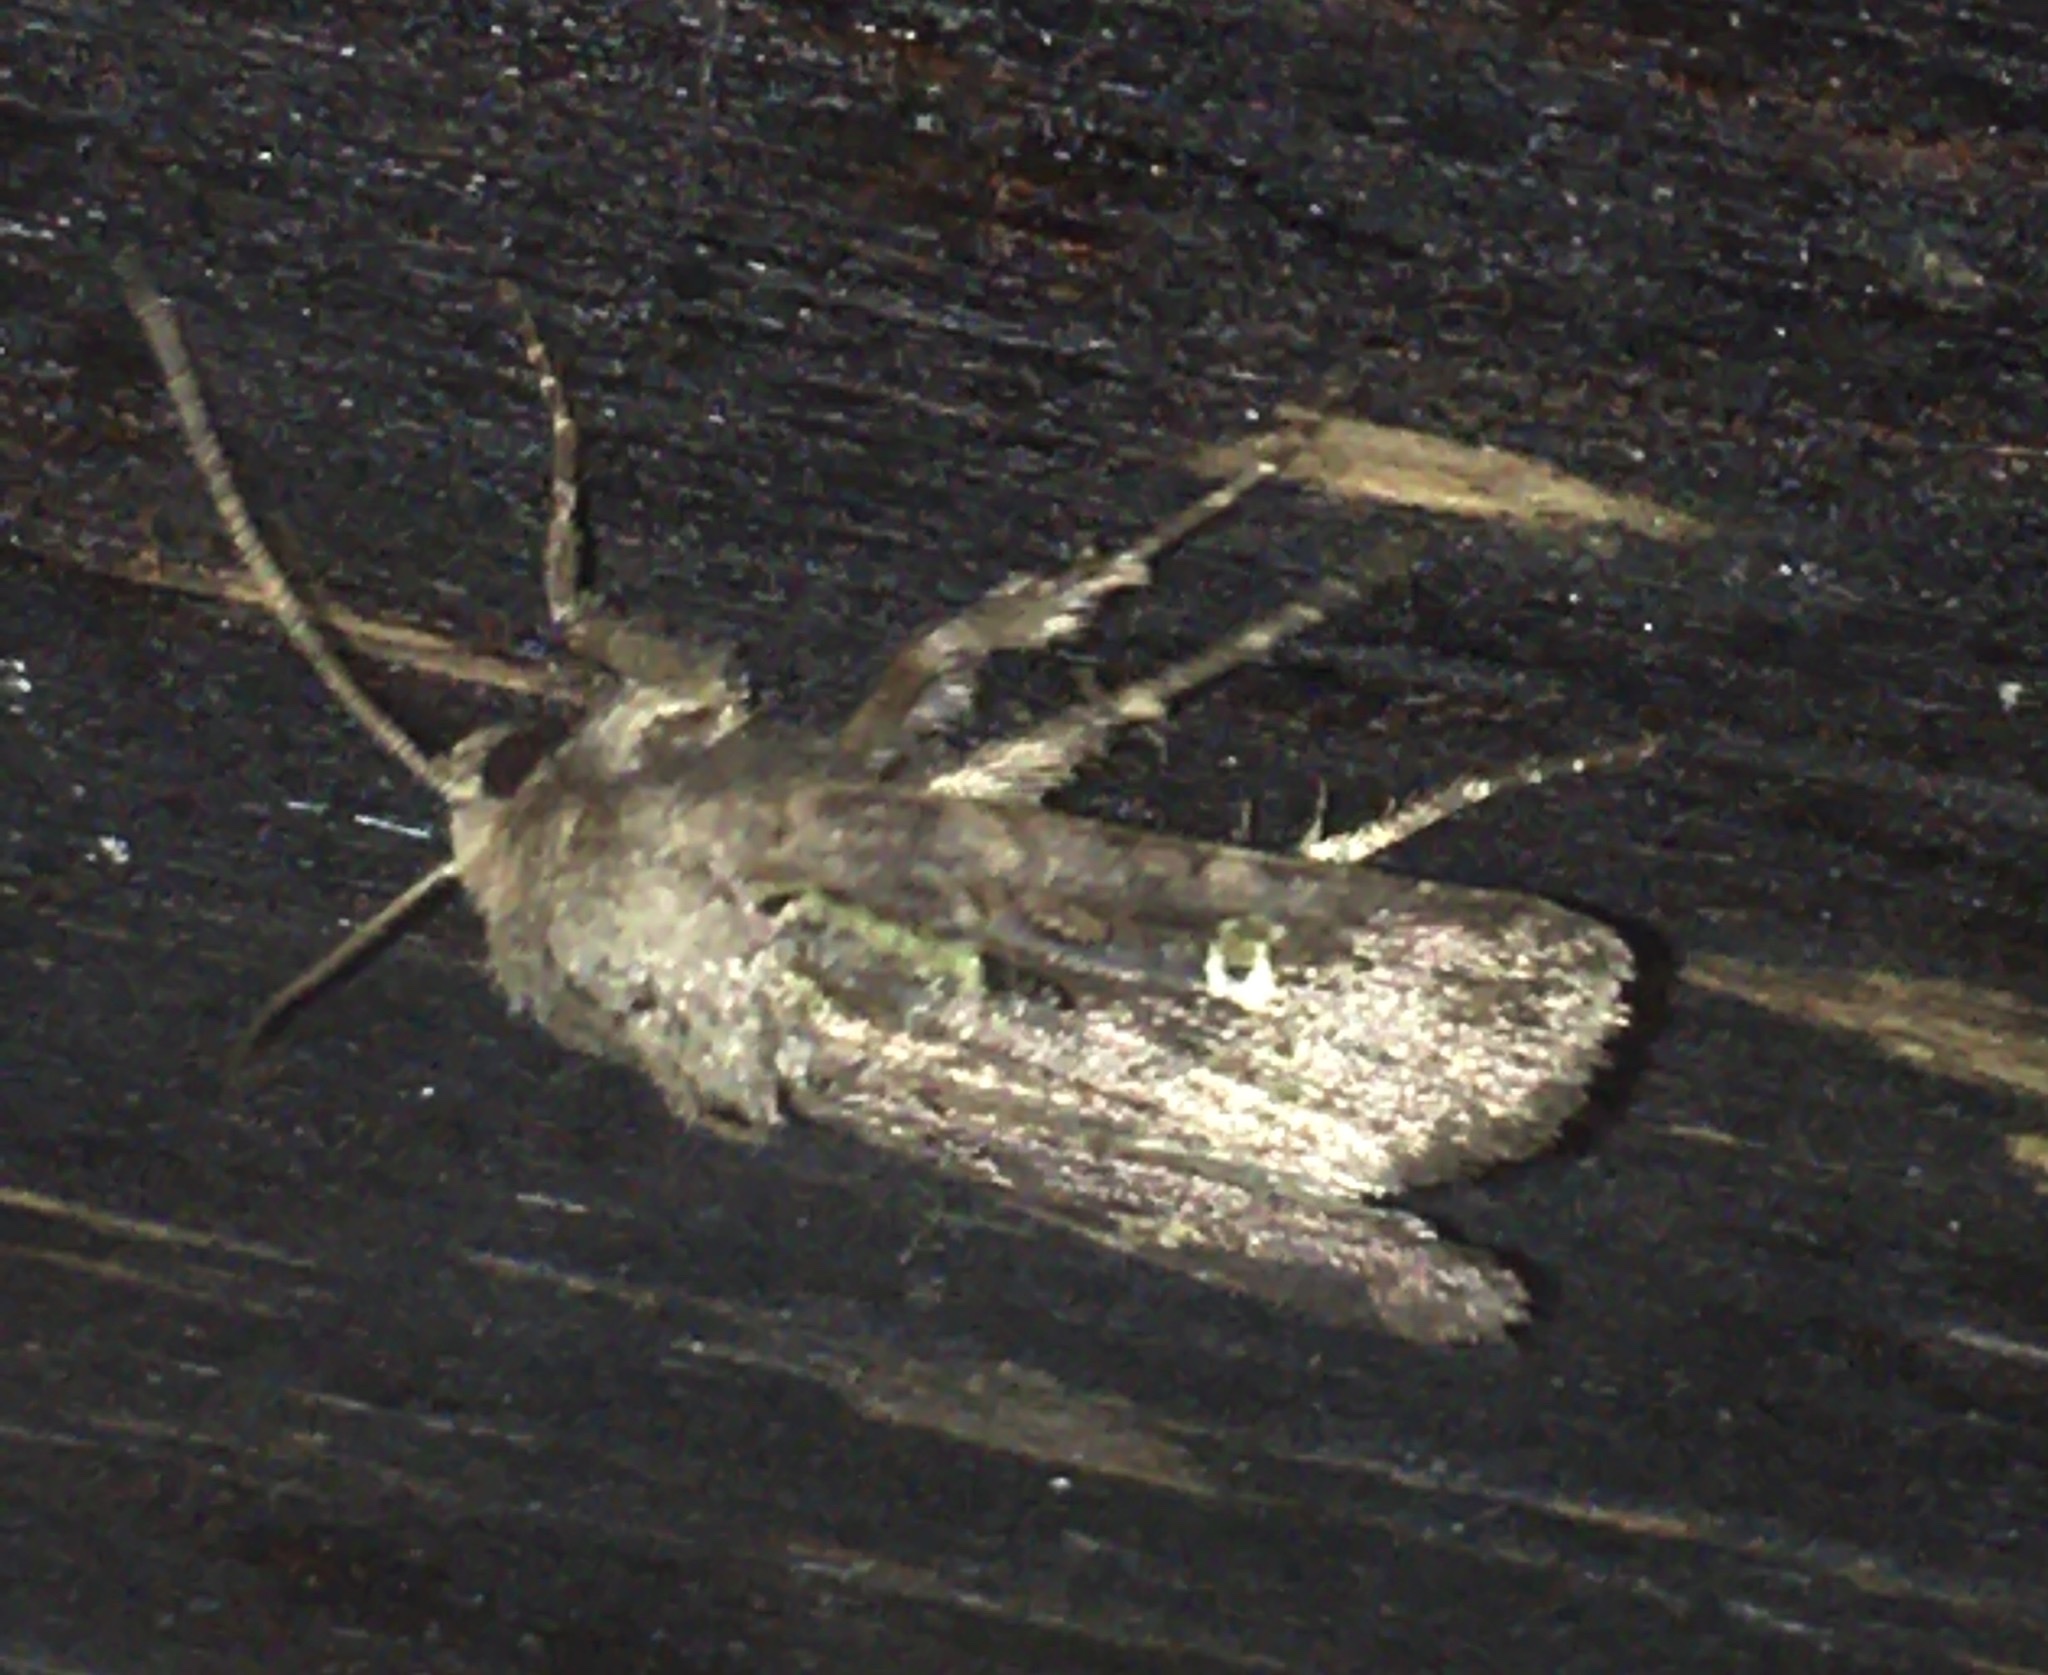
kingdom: Animalia
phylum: Arthropoda
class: Insecta
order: Lepidoptera
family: Noctuidae
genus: Lacinipolia
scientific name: Lacinipolia renigera
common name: Kidney-spotted minor
